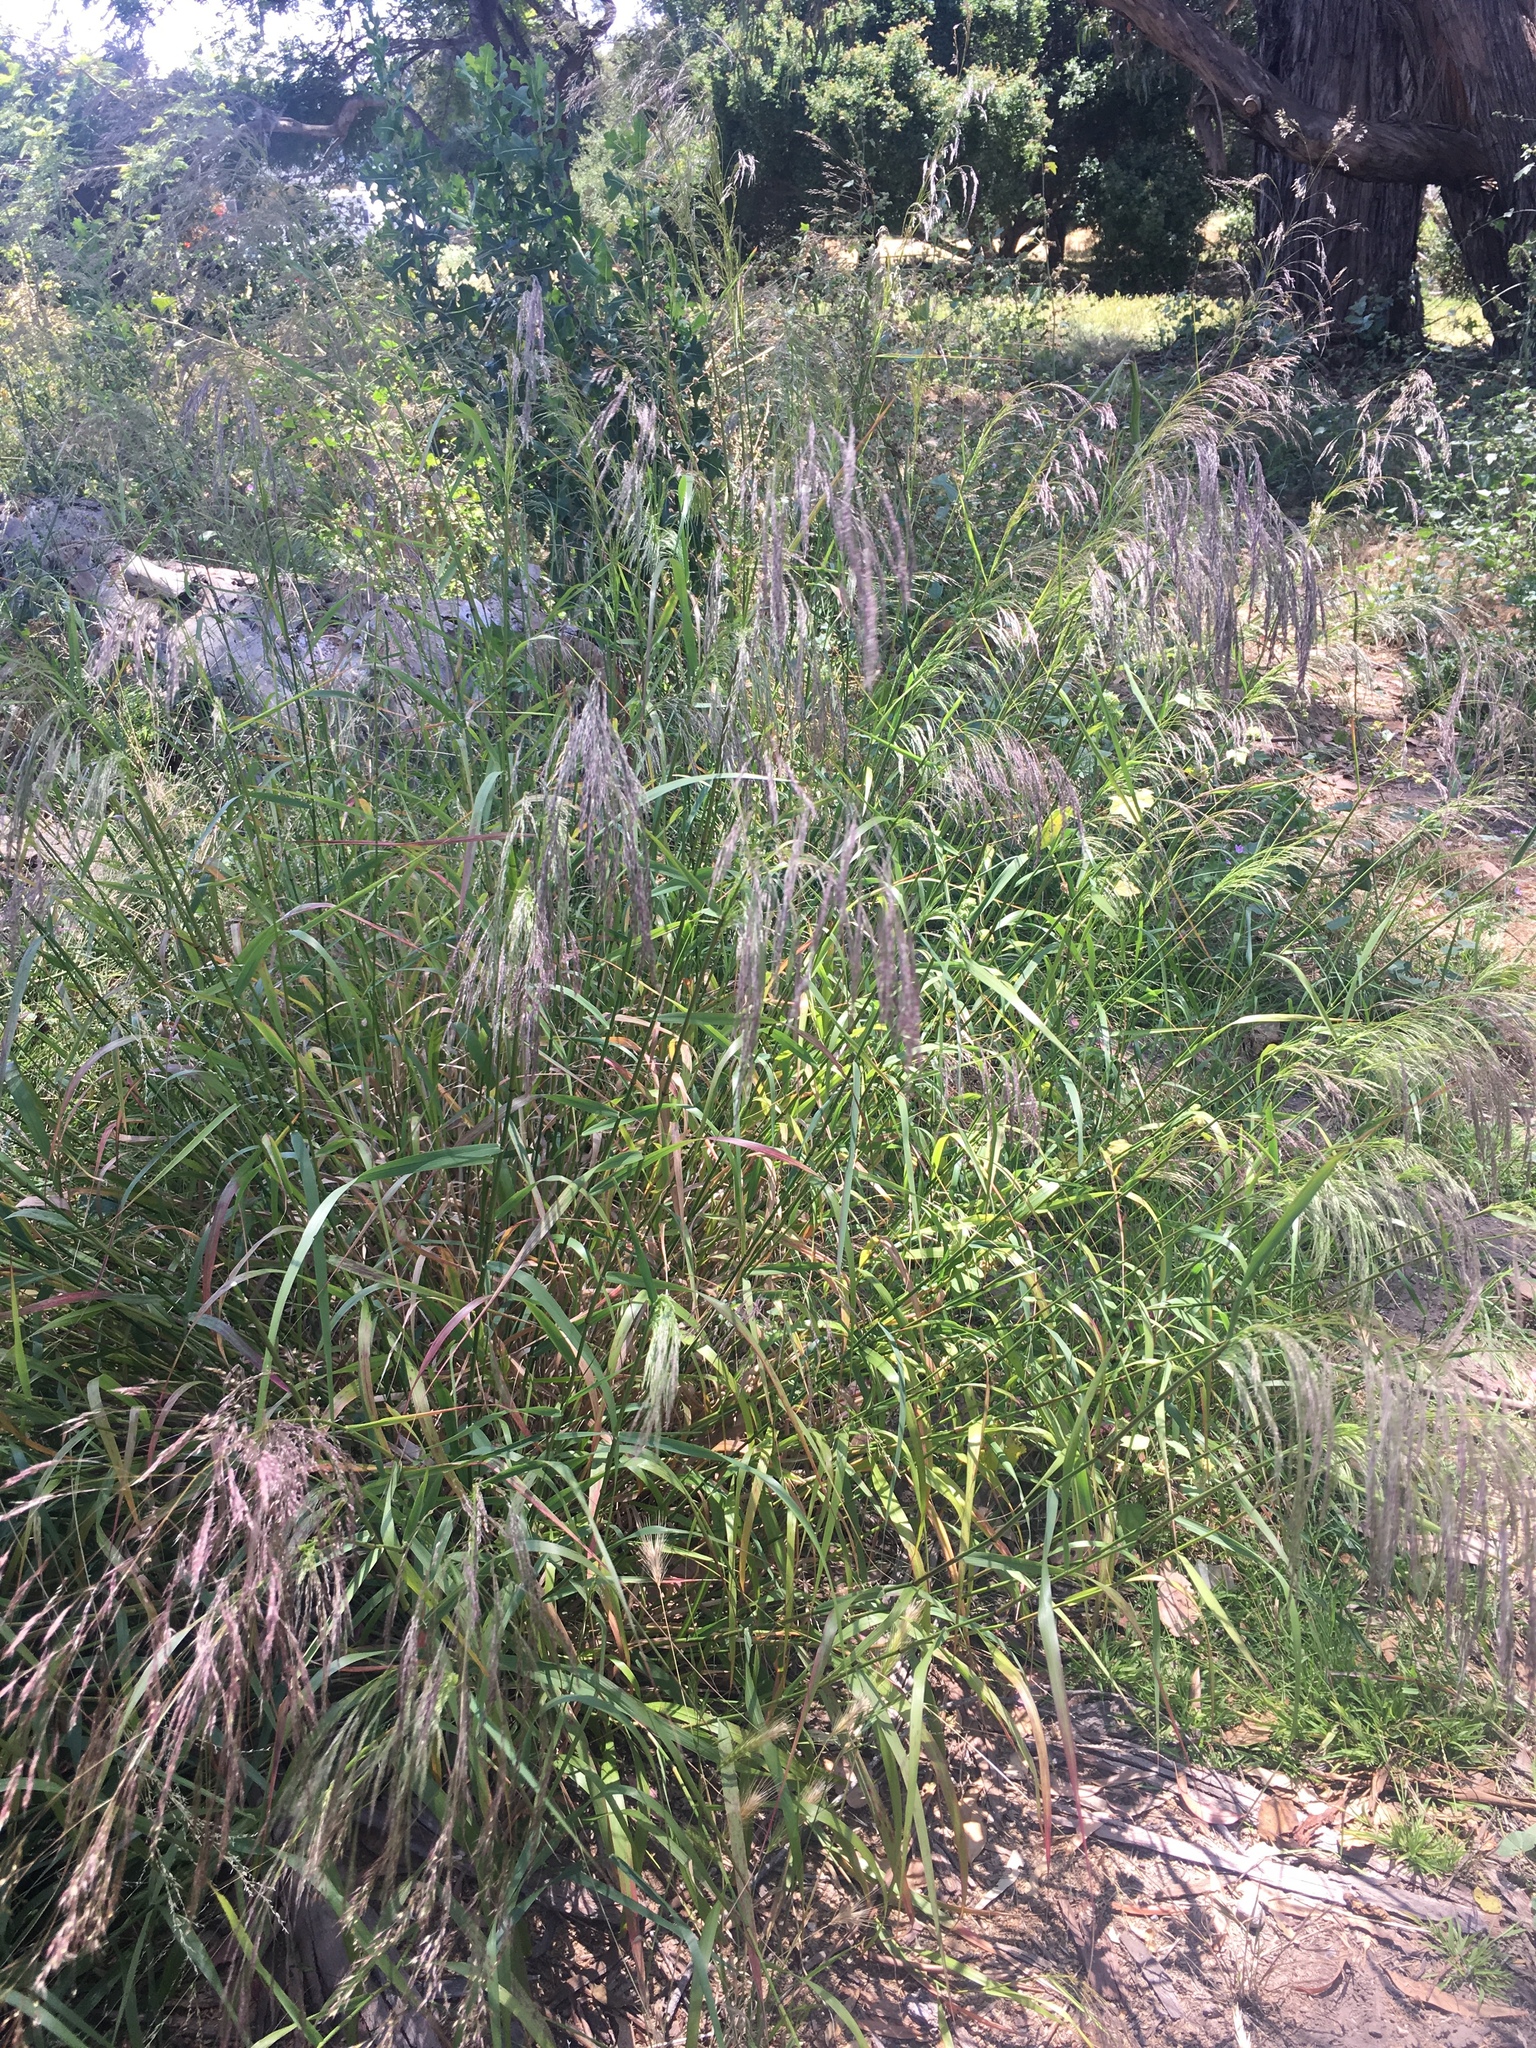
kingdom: Plantae
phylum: Tracheophyta
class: Liliopsida
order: Poales
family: Poaceae
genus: Oloptum
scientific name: Oloptum miliaceum
